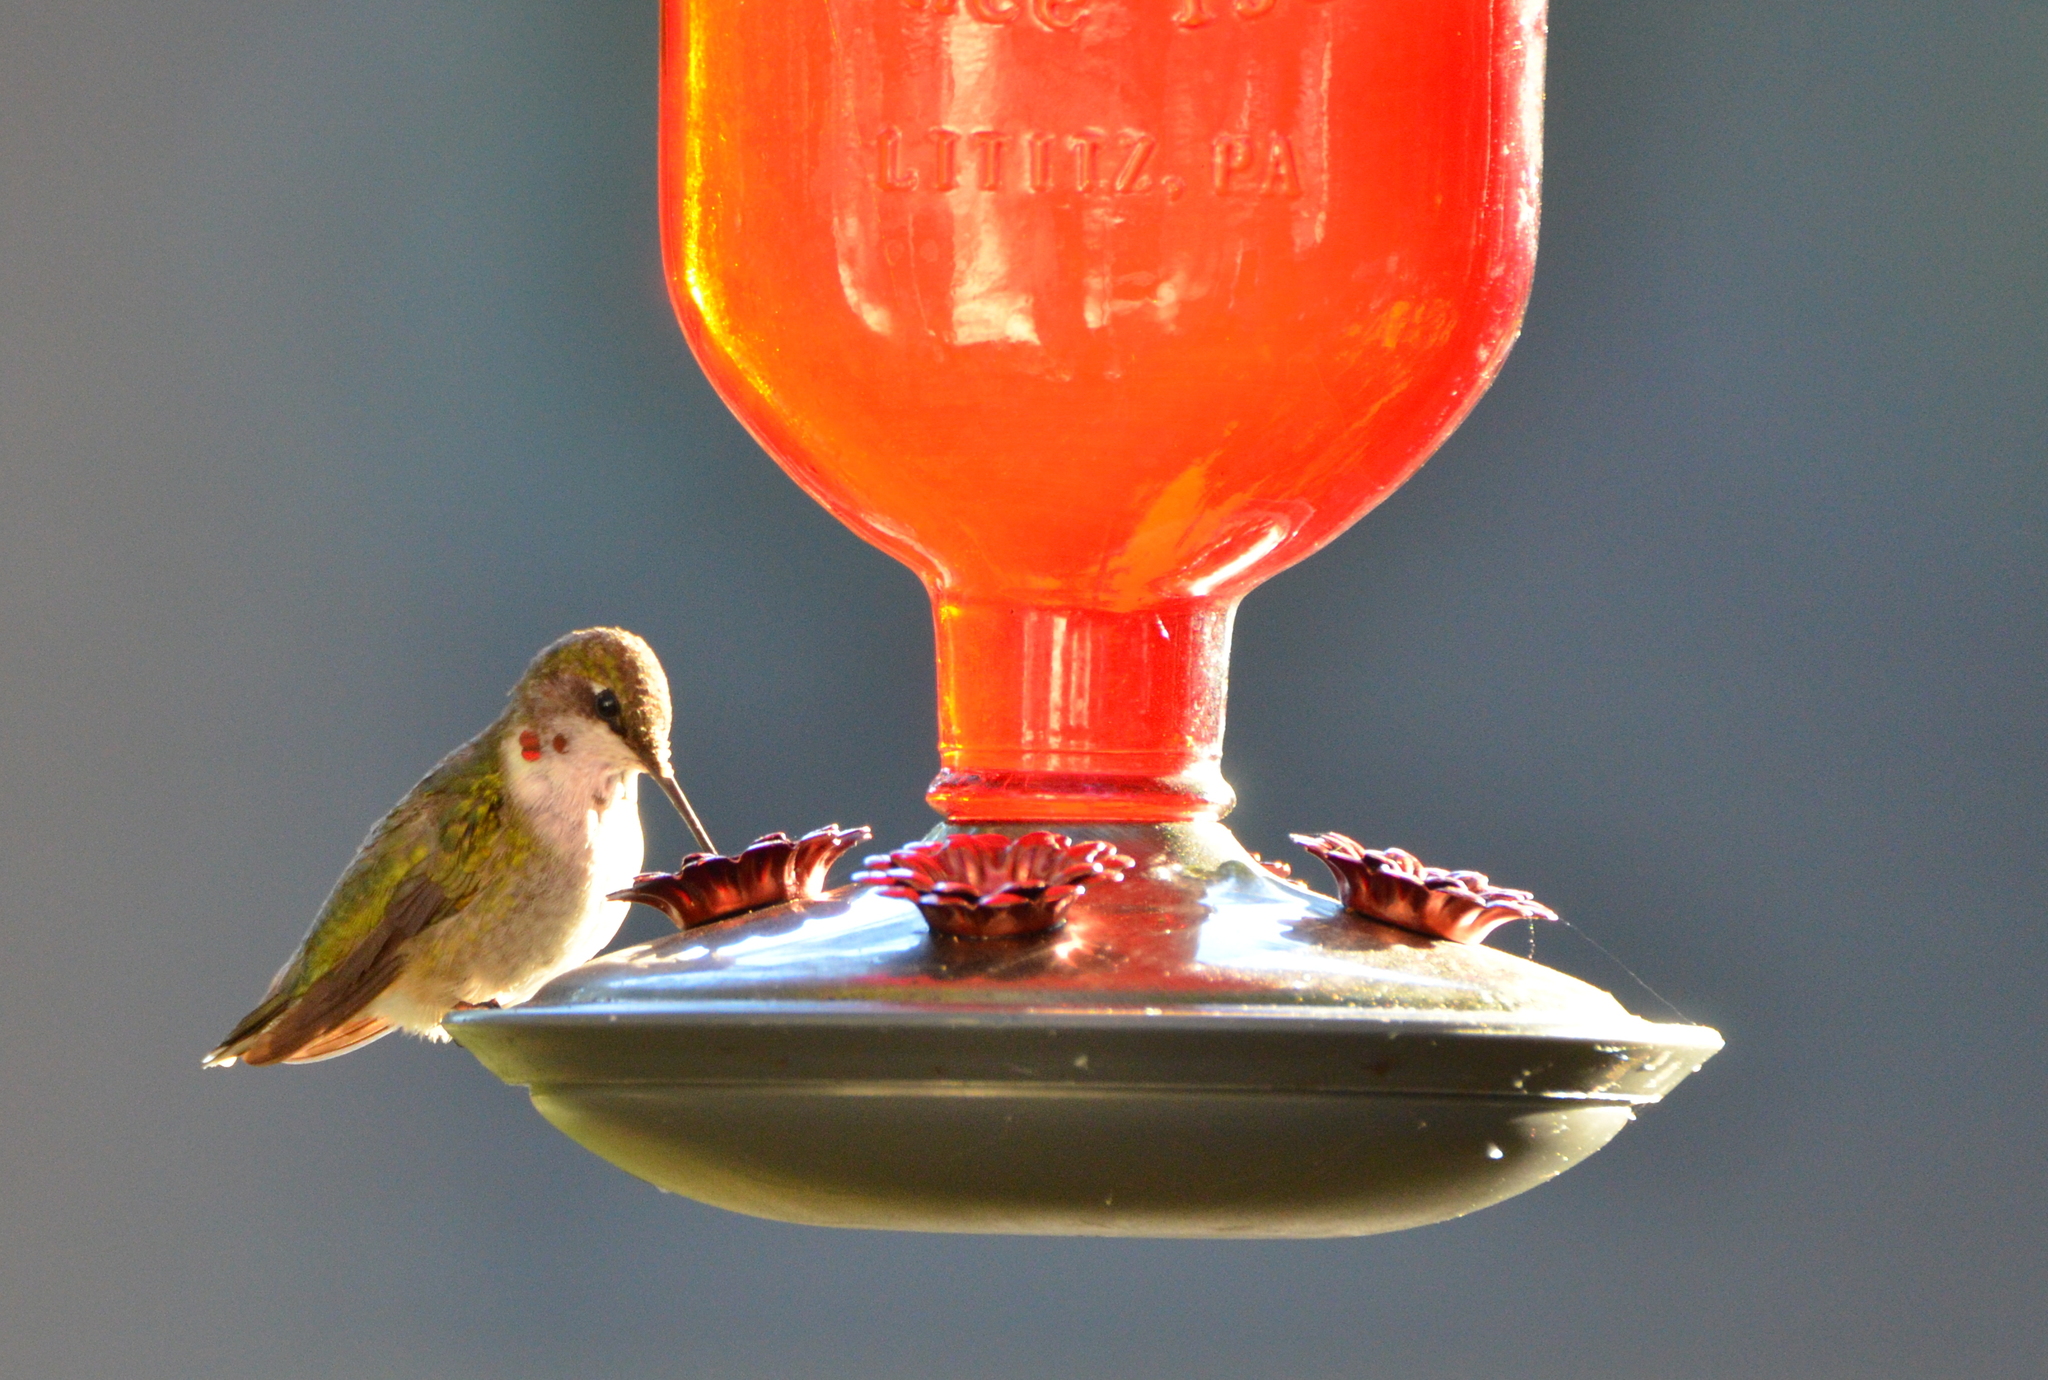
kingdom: Animalia
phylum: Chordata
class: Aves
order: Apodiformes
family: Trochilidae
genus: Archilochus
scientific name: Archilochus colubris
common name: Ruby-throated hummingbird
